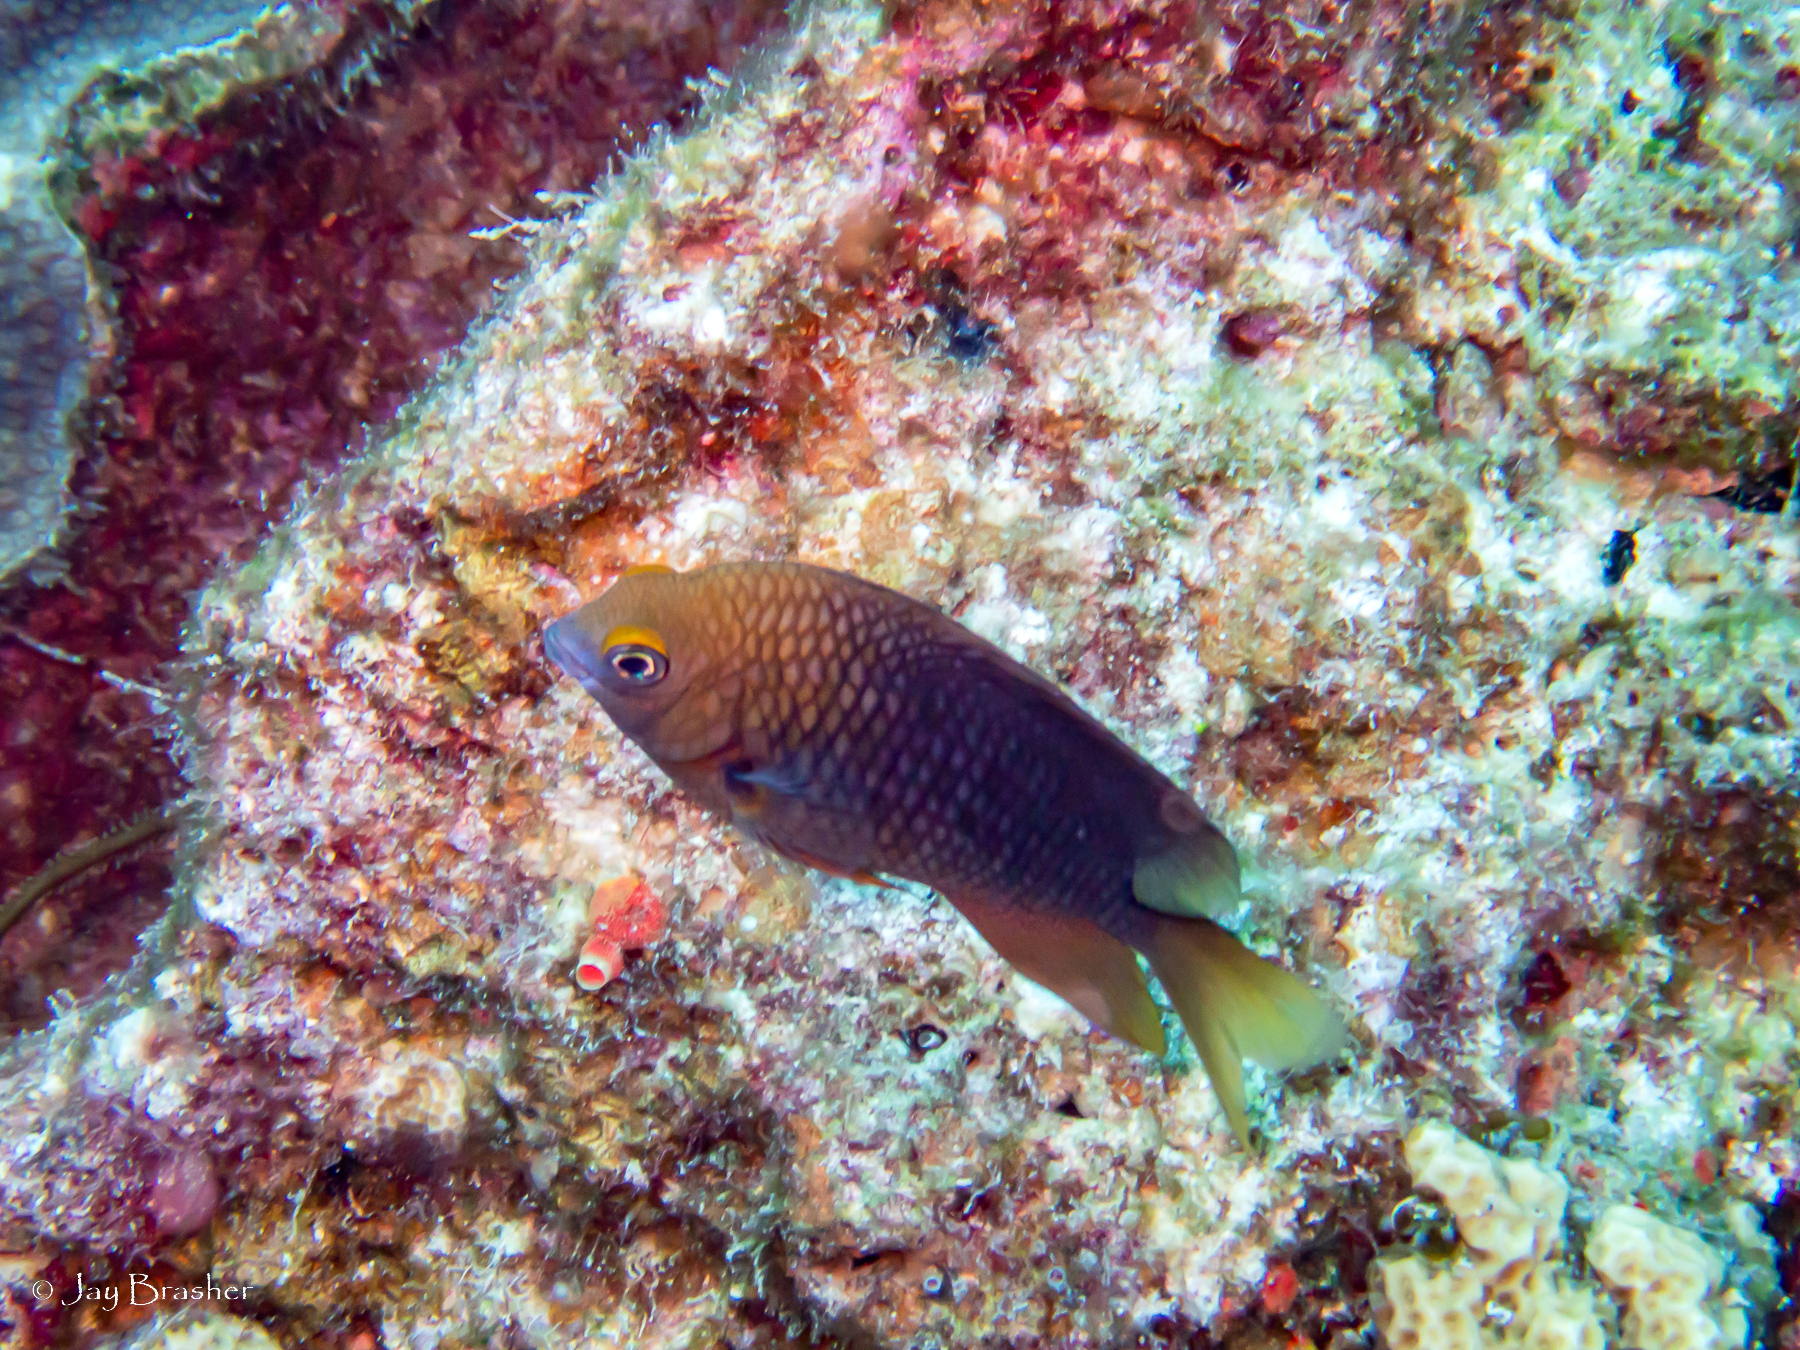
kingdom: Animalia
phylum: Chordata
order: Perciformes
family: Pomacentridae
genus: Stegastes
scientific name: Stegastes planifrons
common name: Threespot damselfish
